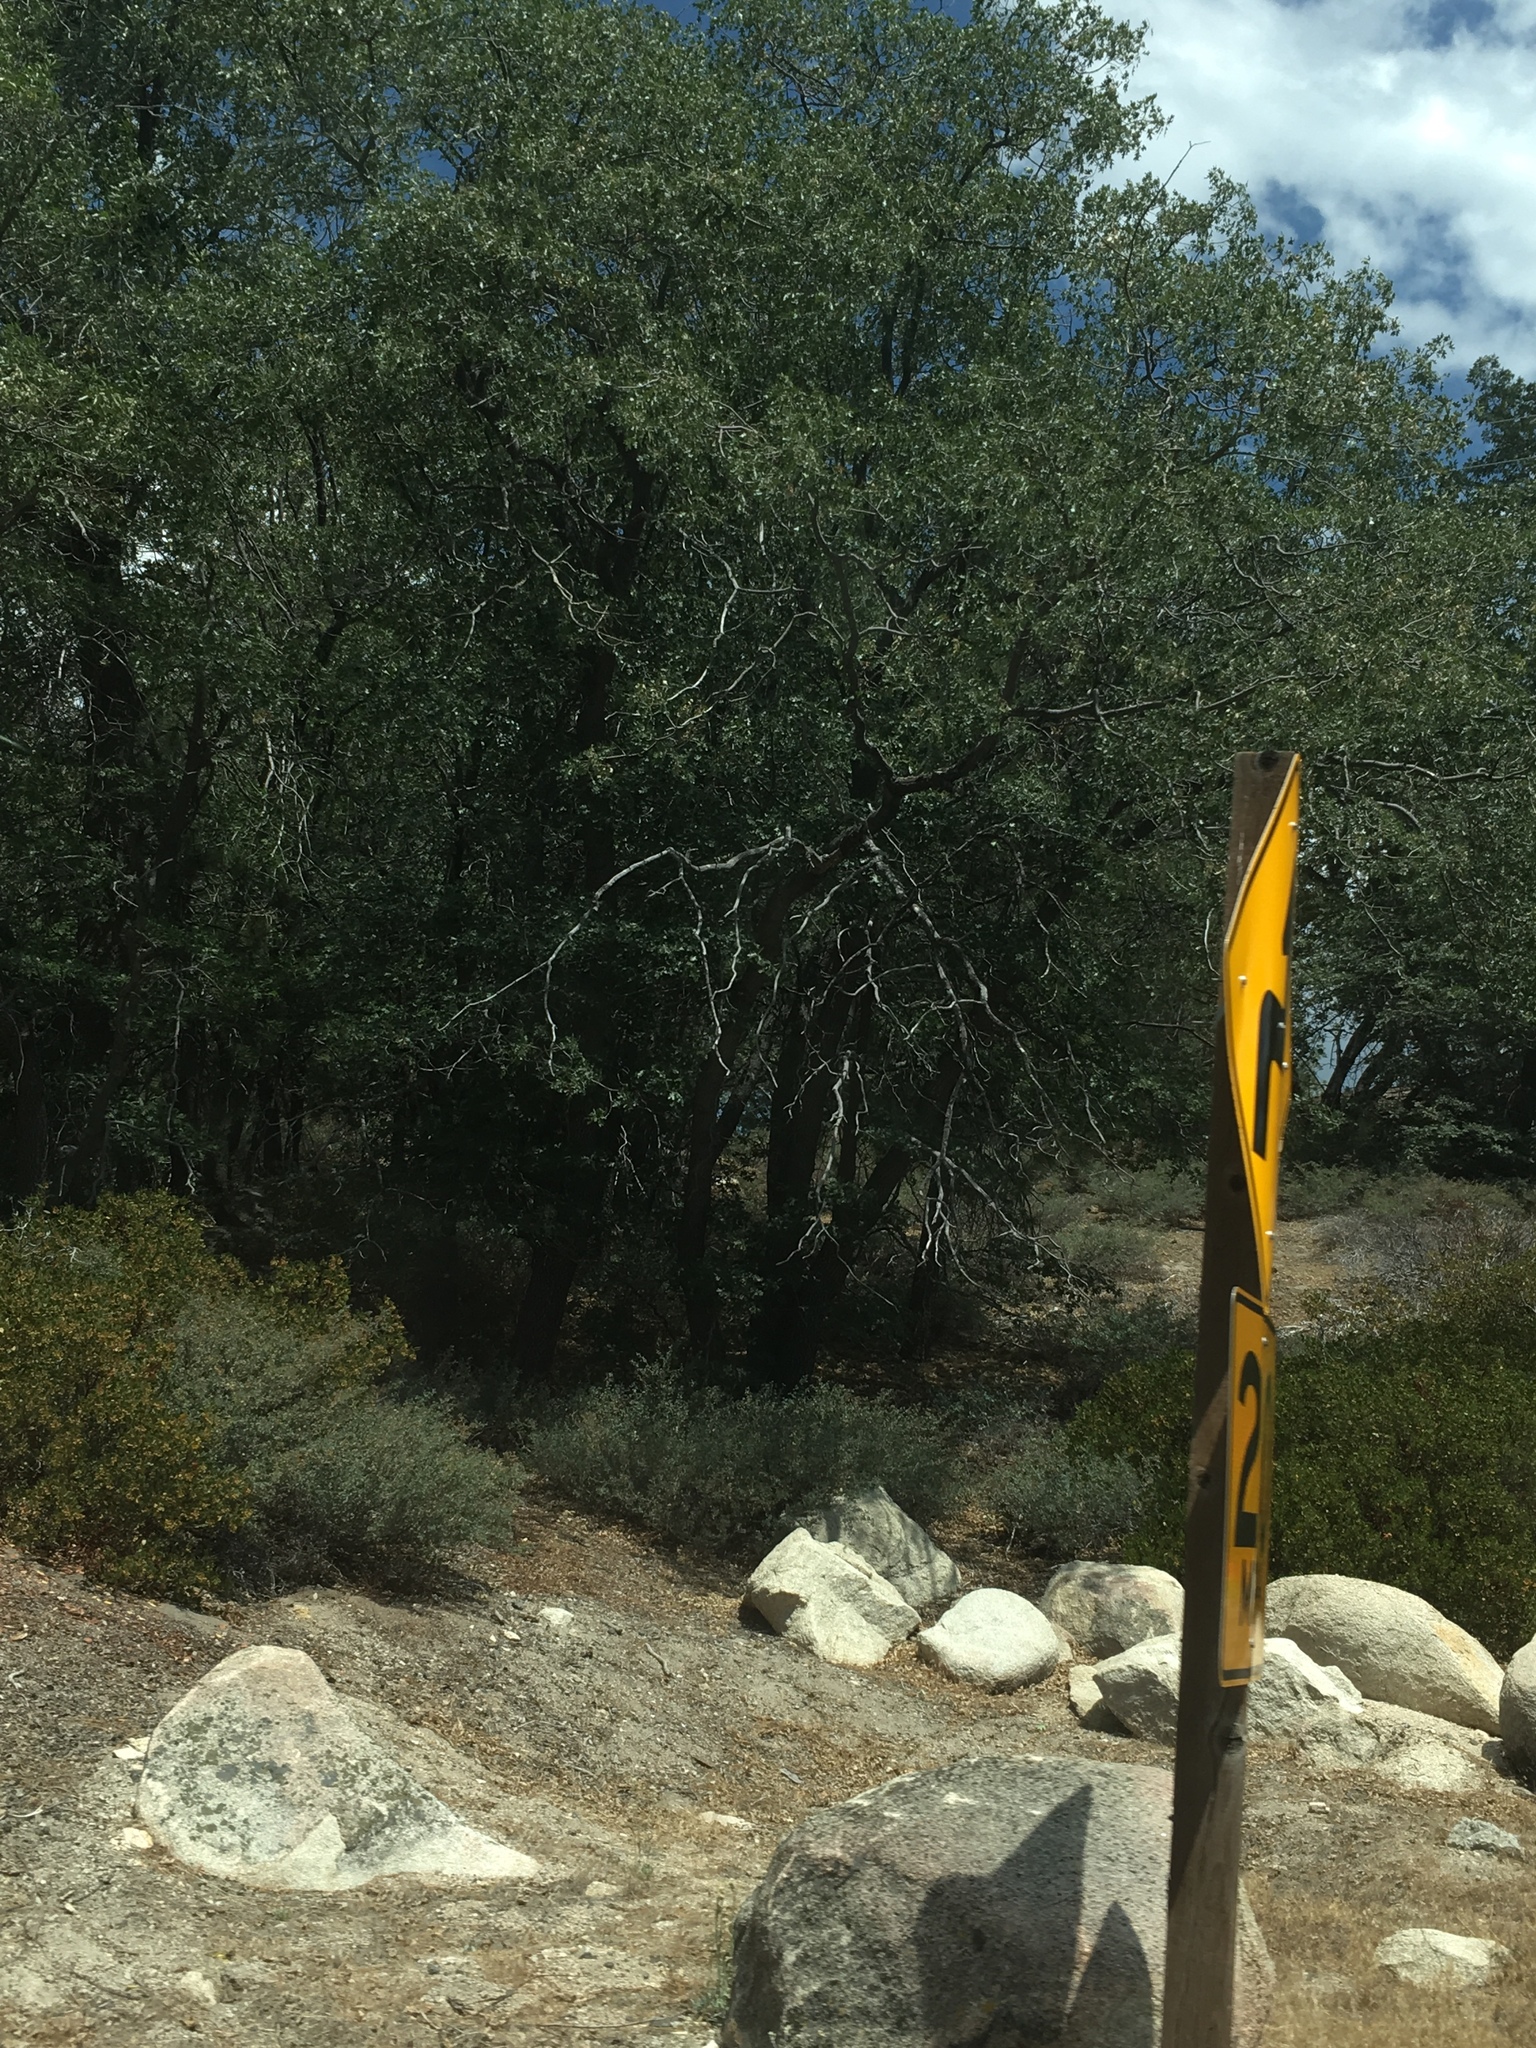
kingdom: Plantae
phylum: Tracheophyta
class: Magnoliopsida
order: Fagales
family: Fagaceae
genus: Quercus
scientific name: Quercus kelloggii
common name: California black oak
